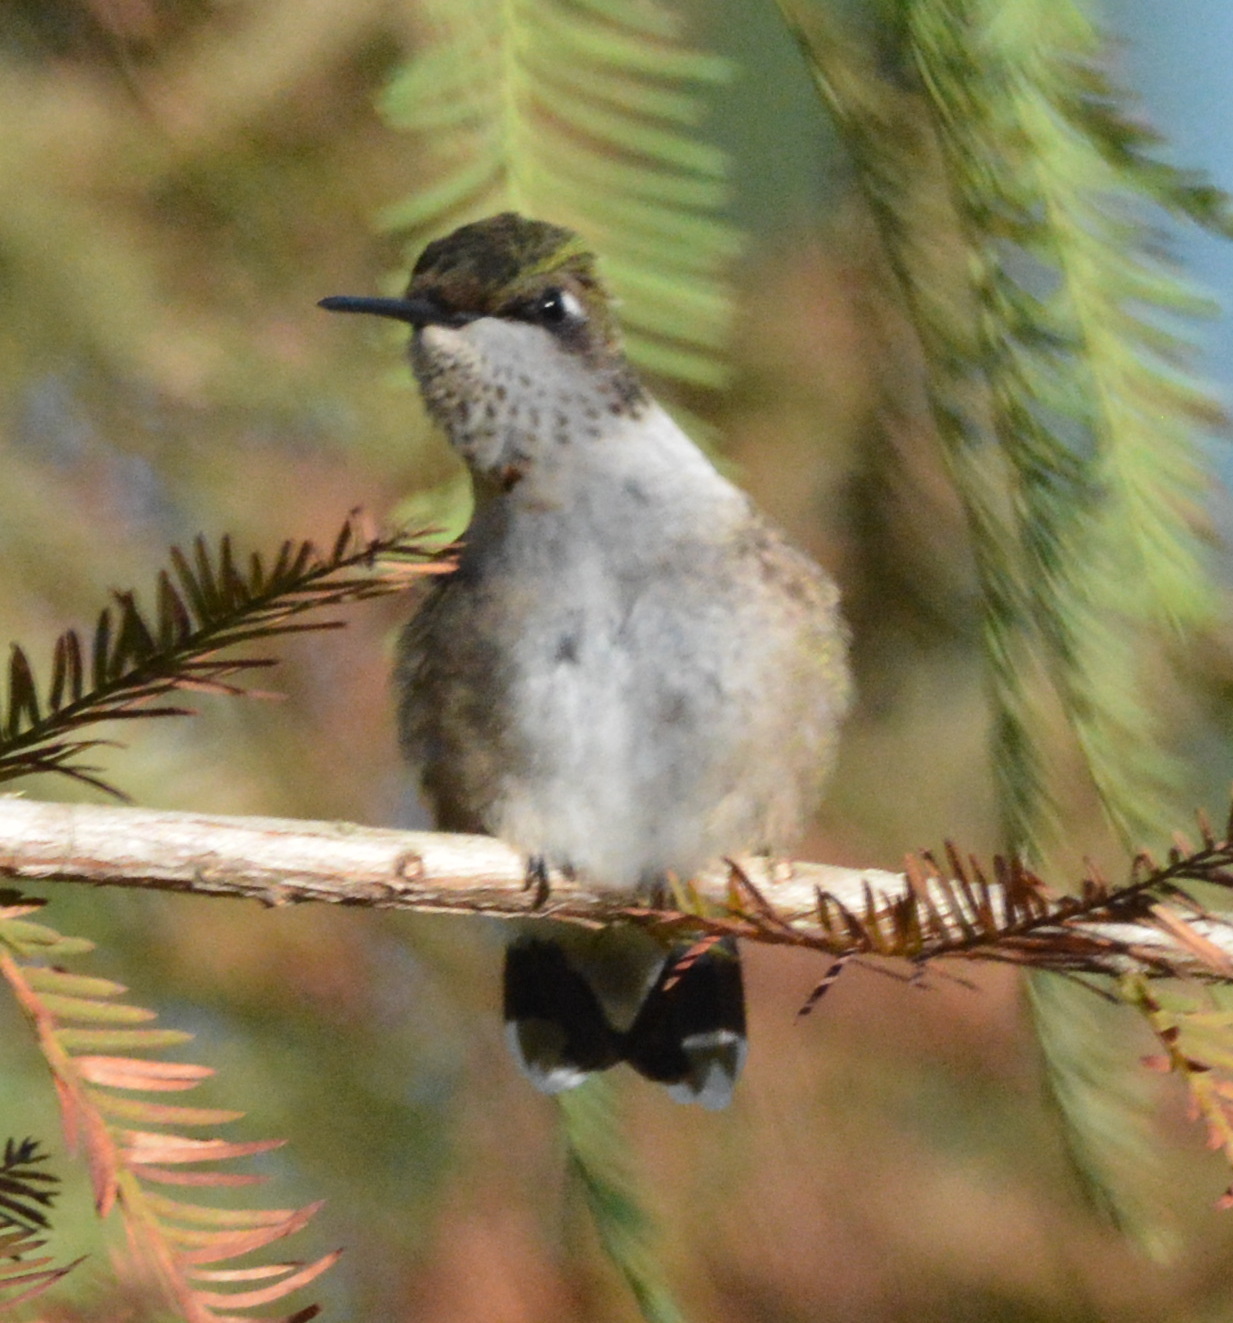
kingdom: Animalia
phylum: Chordata
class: Aves
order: Apodiformes
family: Trochilidae
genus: Archilochus
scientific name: Archilochus colubris
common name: Ruby-throated hummingbird
